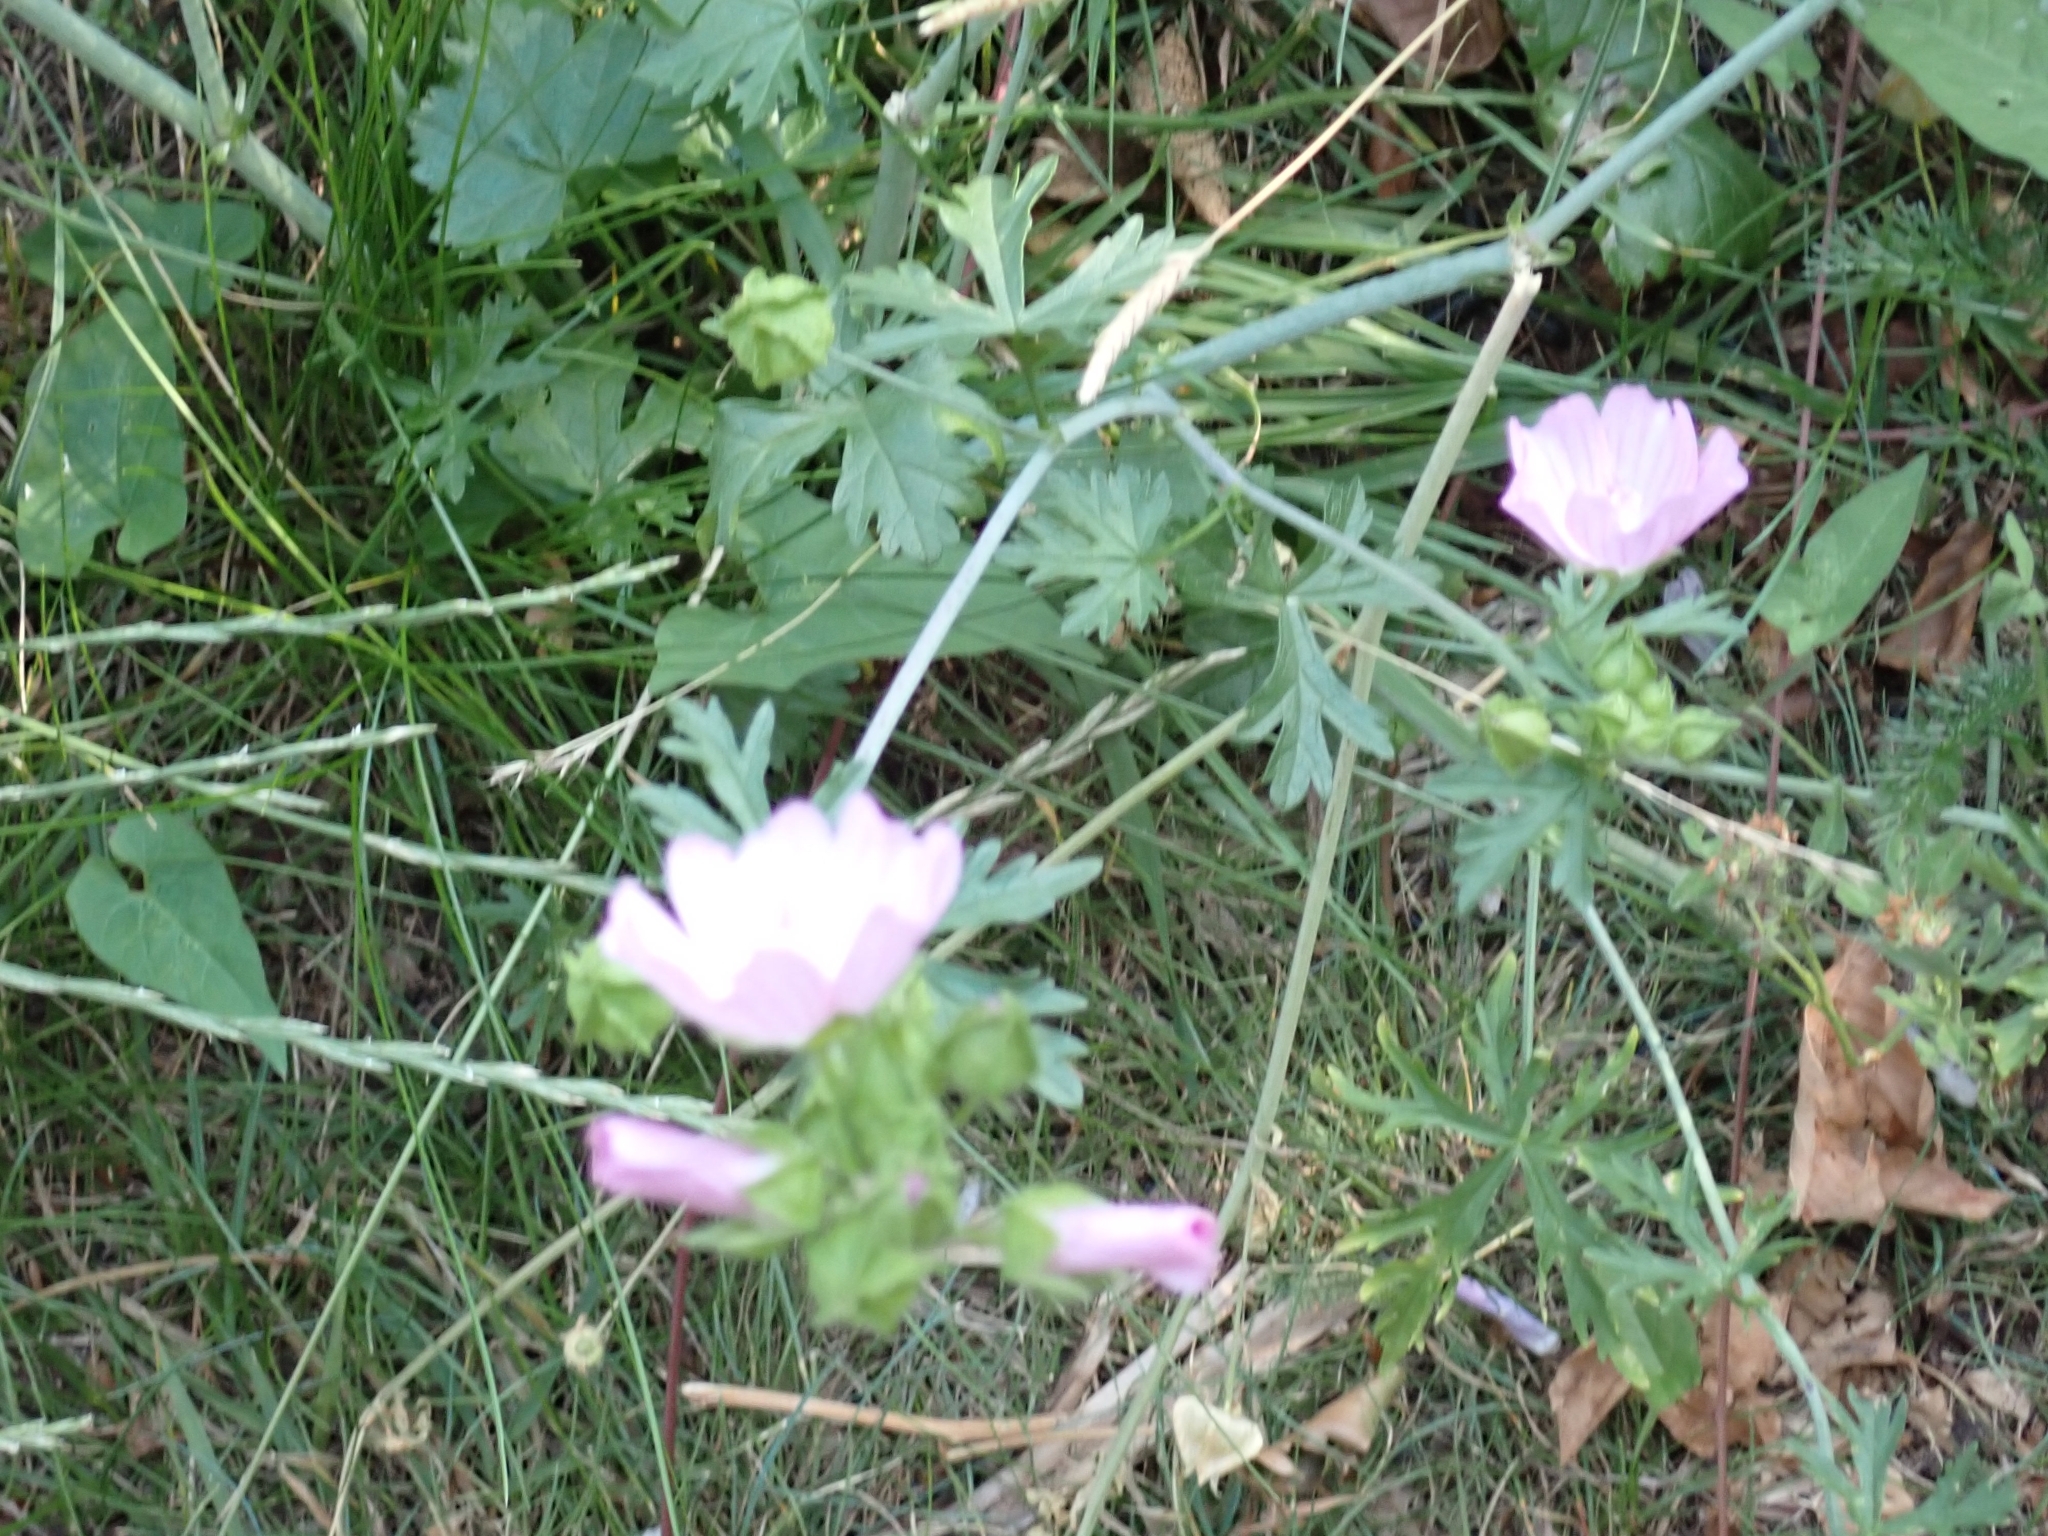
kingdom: Plantae
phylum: Tracheophyta
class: Magnoliopsida
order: Malvales
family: Malvaceae
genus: Malva
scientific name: Malva moschata
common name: Musk mallow
